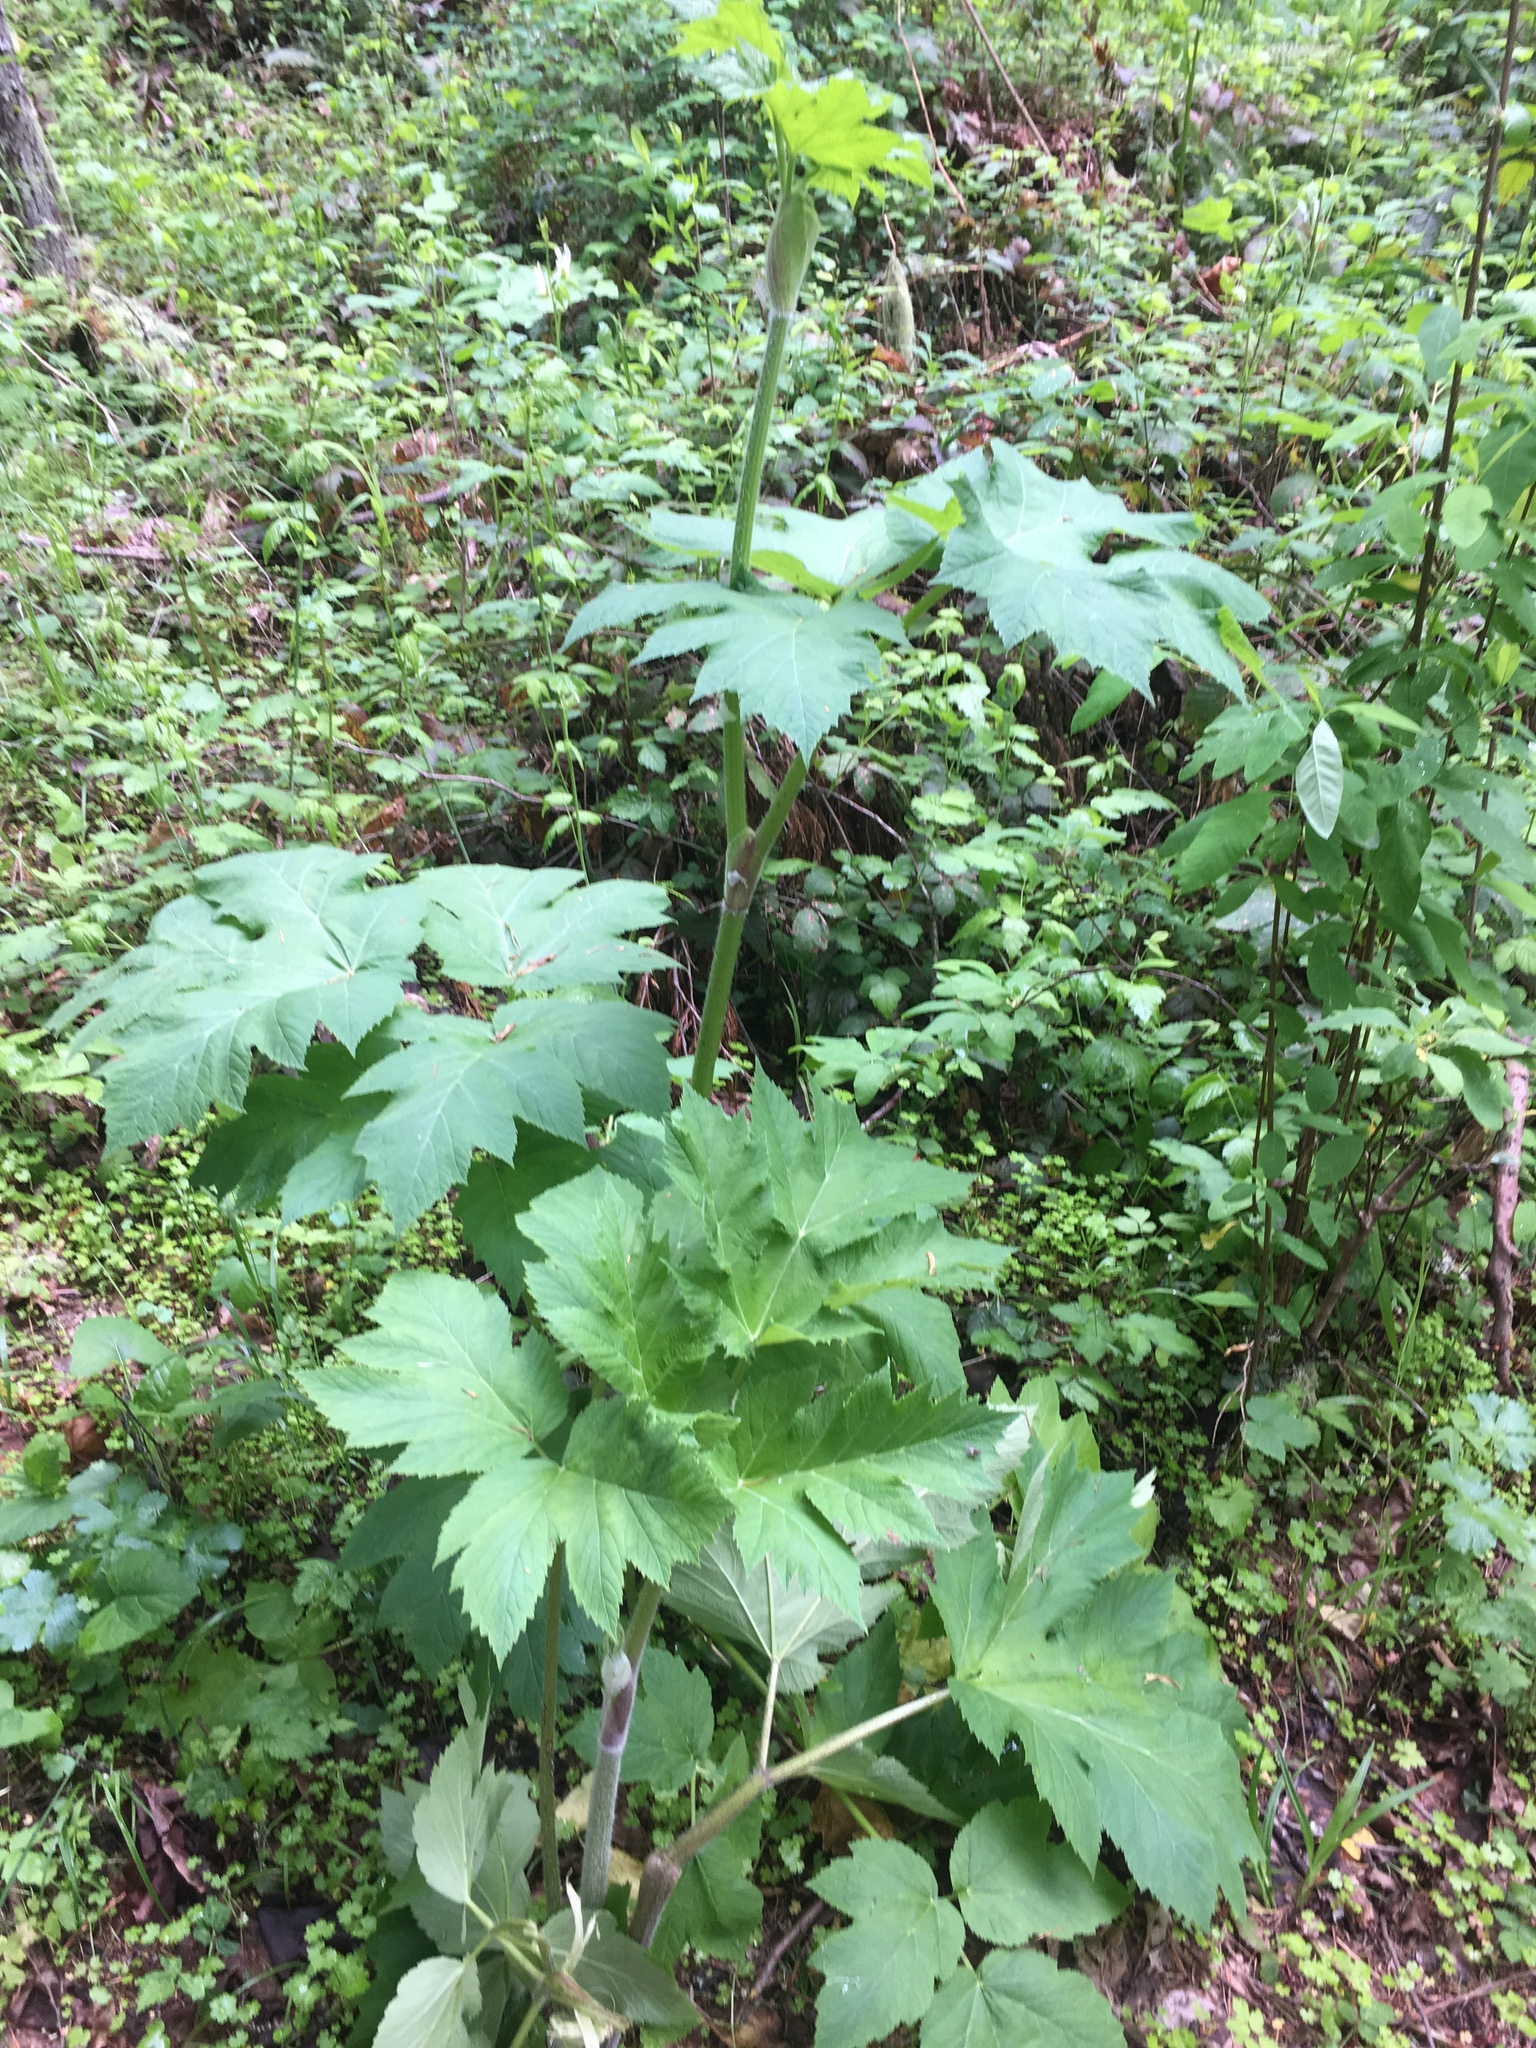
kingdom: Plantae
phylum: Tracheophyta
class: Magnoliopsida
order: Apiales
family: Apiaceae
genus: Heracleum
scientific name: Heracleum maximum
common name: American cow parsnip
